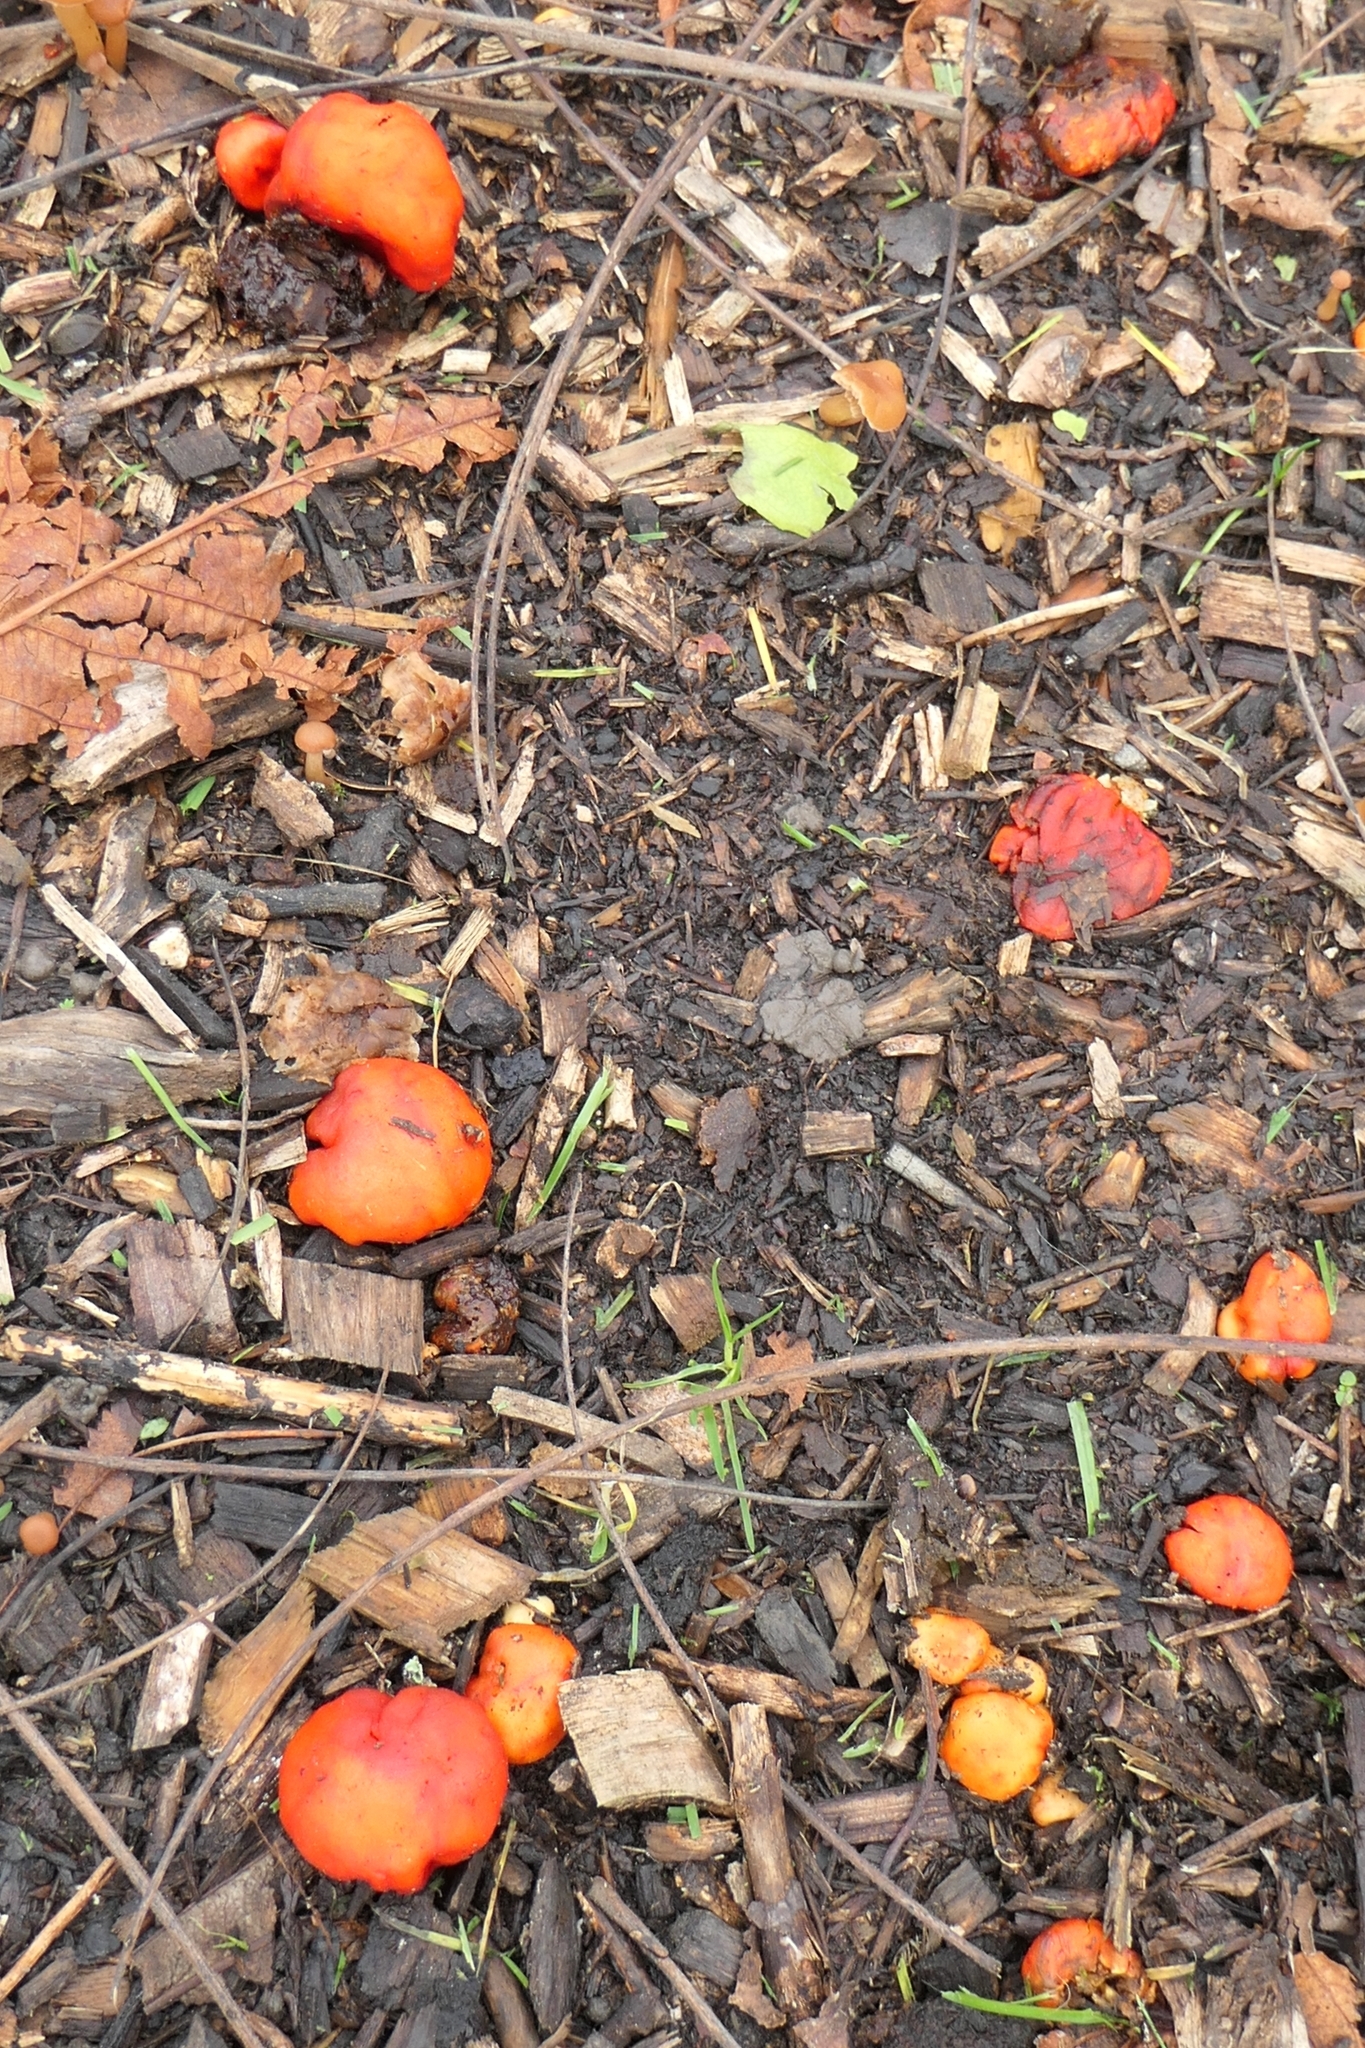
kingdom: Fungi
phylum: Basidiomycota
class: Agaricomycetes
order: Agaricales
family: Strophariaceae
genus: Leratiomyces
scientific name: Leratiomyces erythrocephalus
